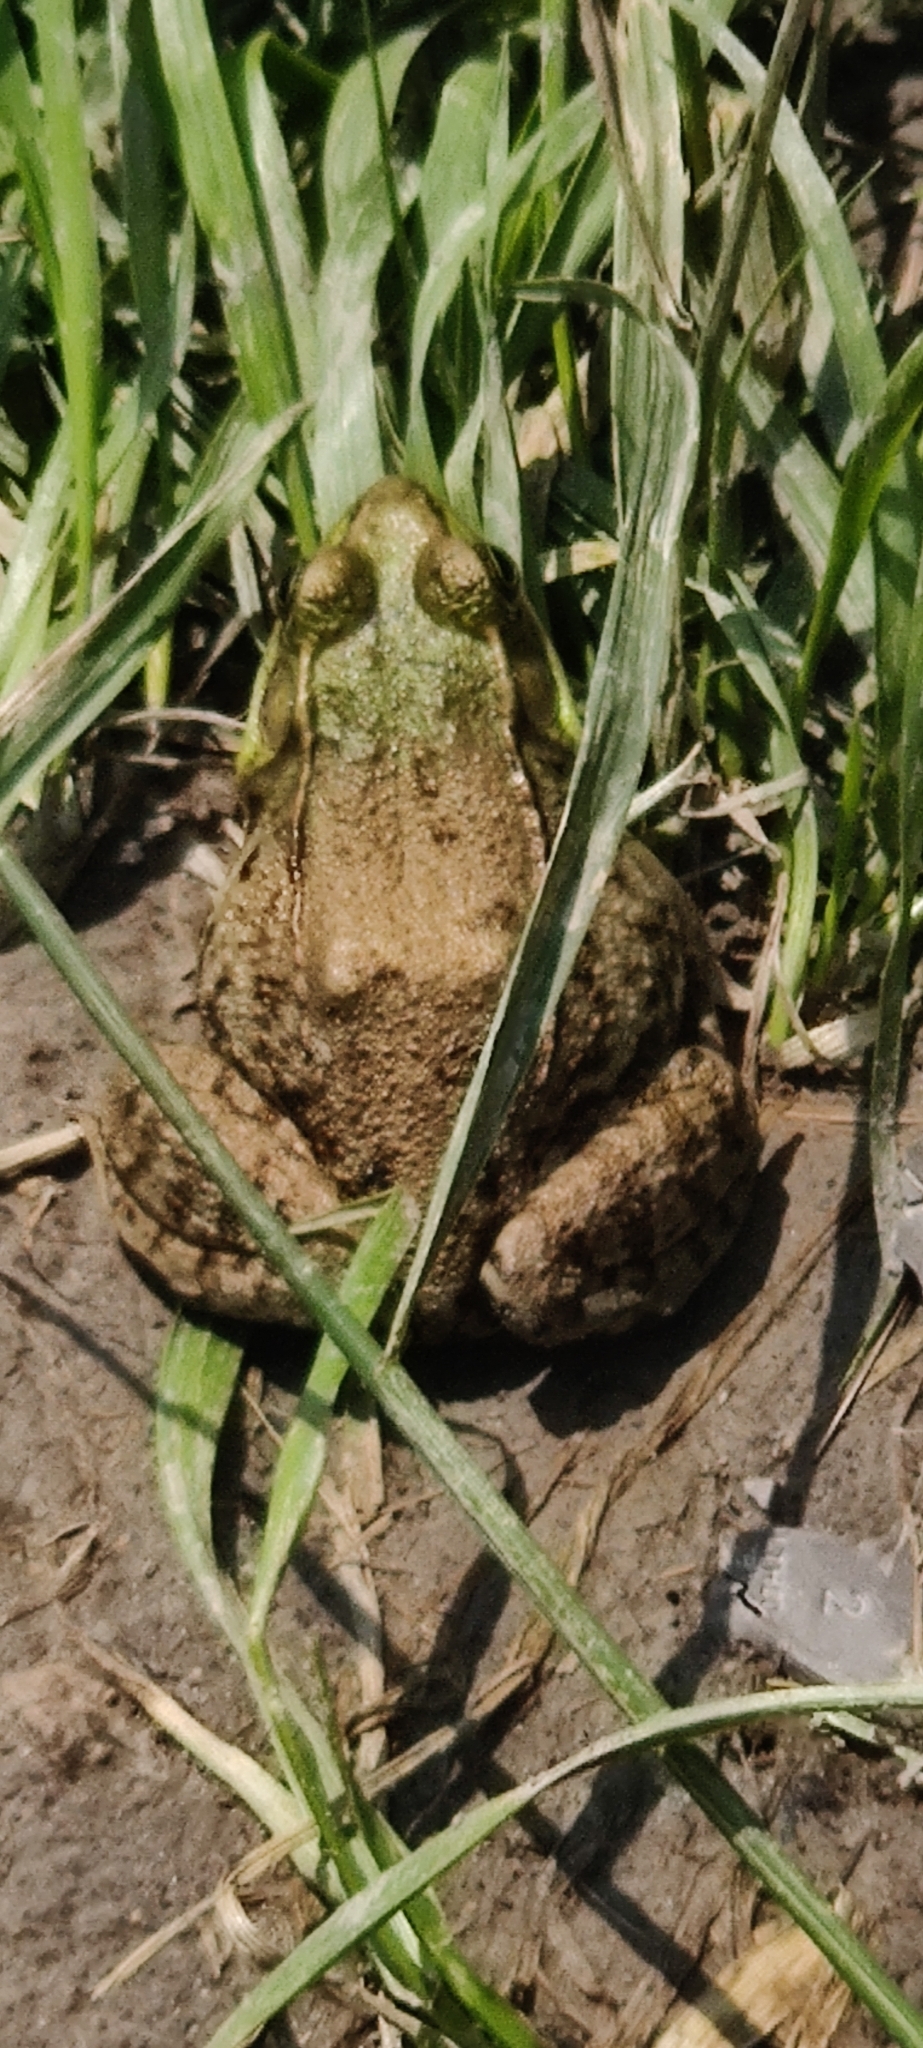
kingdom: Animalia
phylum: Chordata
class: Amphibia
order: Anura
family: Ranidae
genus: Lithobates
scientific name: Lithobates clamitans
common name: Green frog
